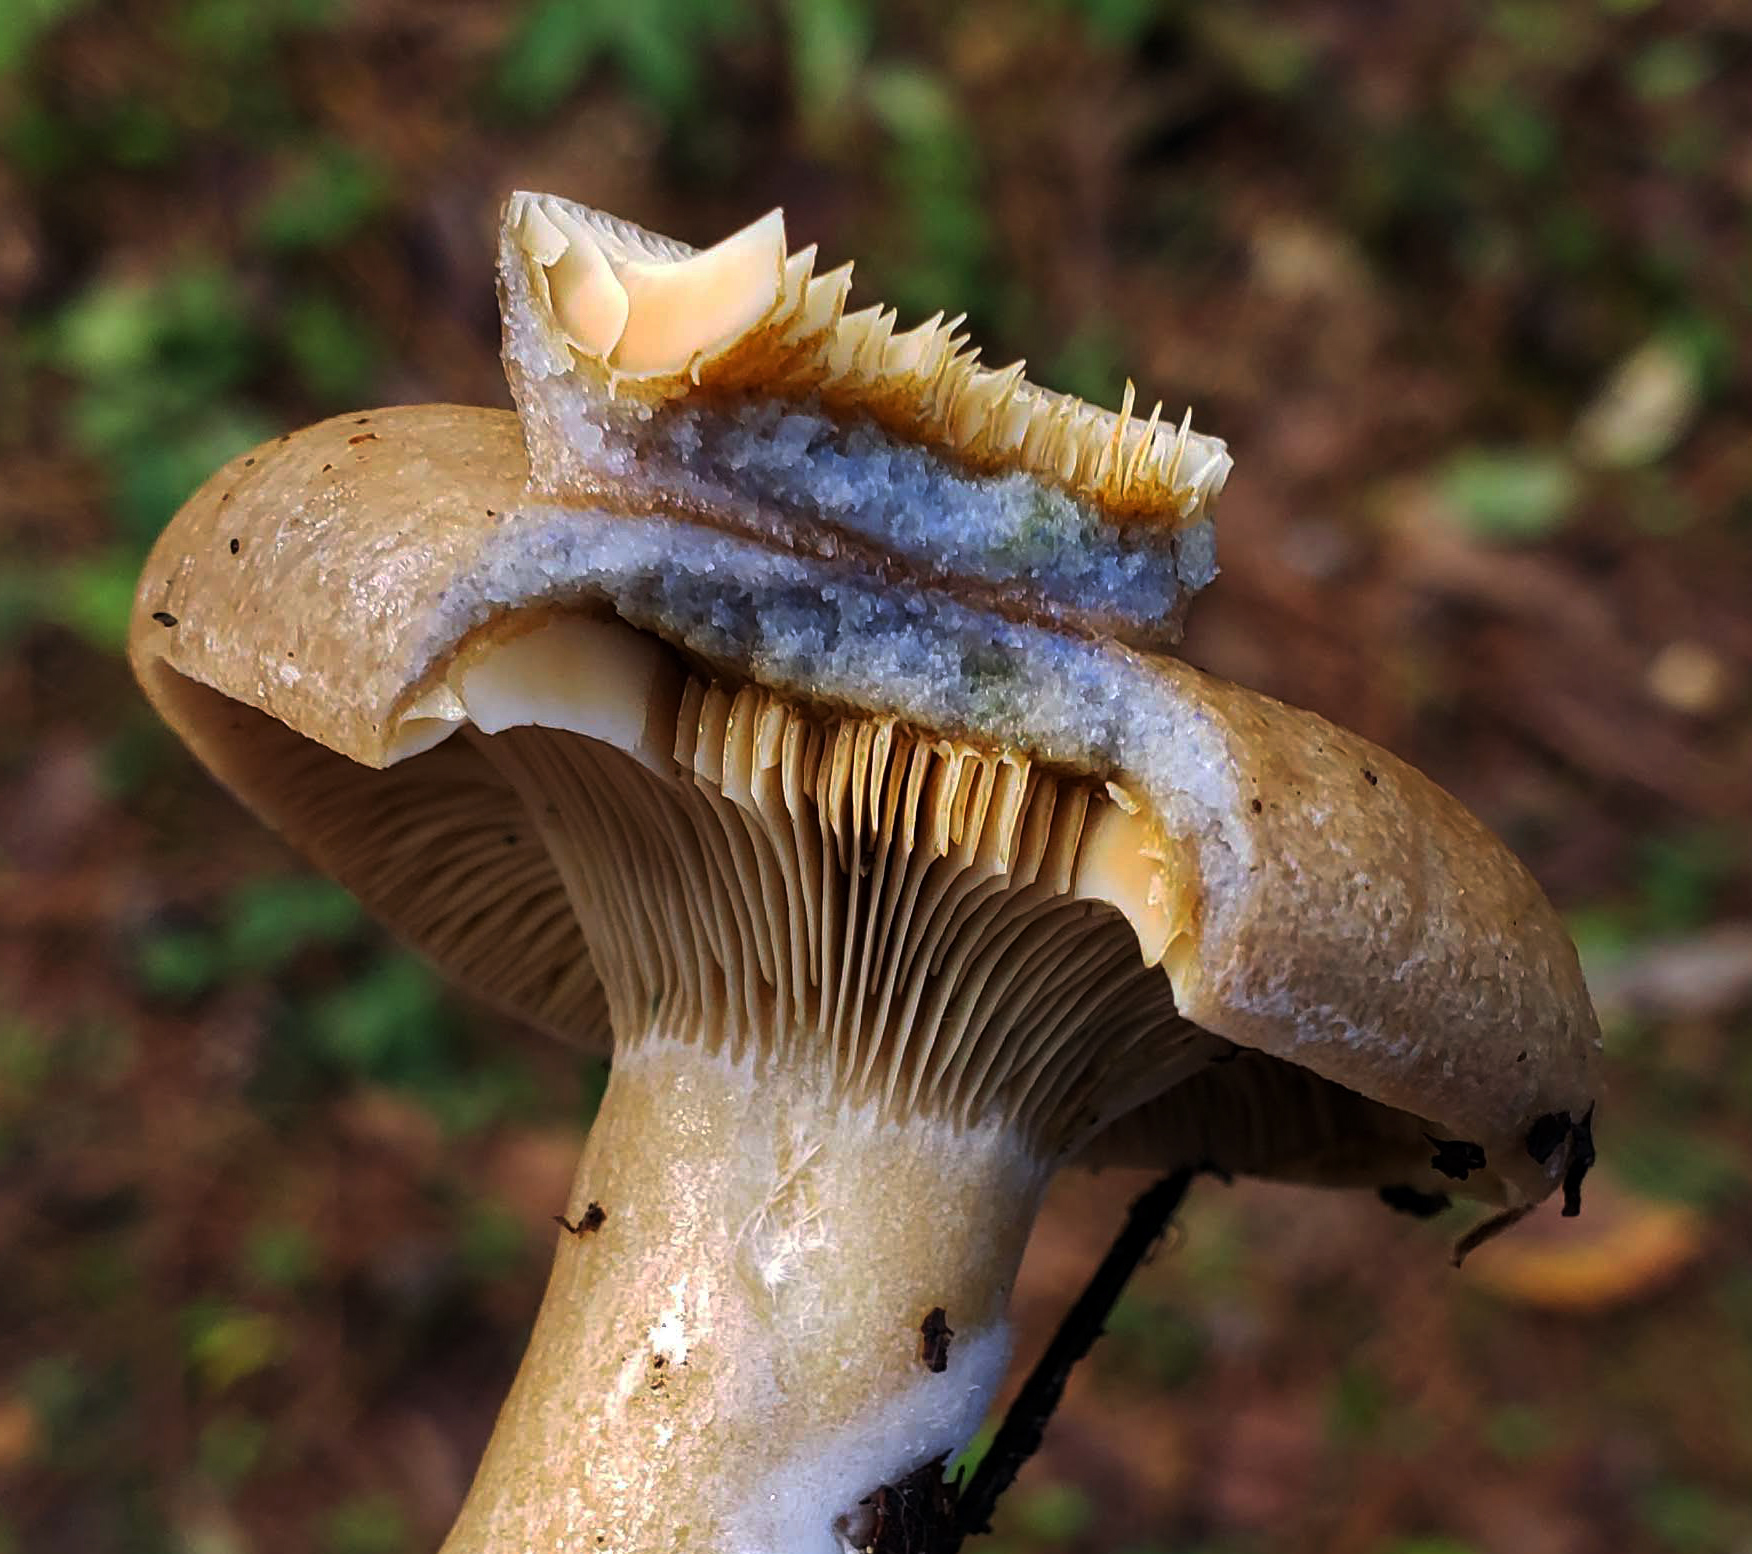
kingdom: Fungi
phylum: Basidiomycota
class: Agaricomycetes
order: Russulales
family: Russulaceae
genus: Lactarius
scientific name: Lactarius chelidonium
